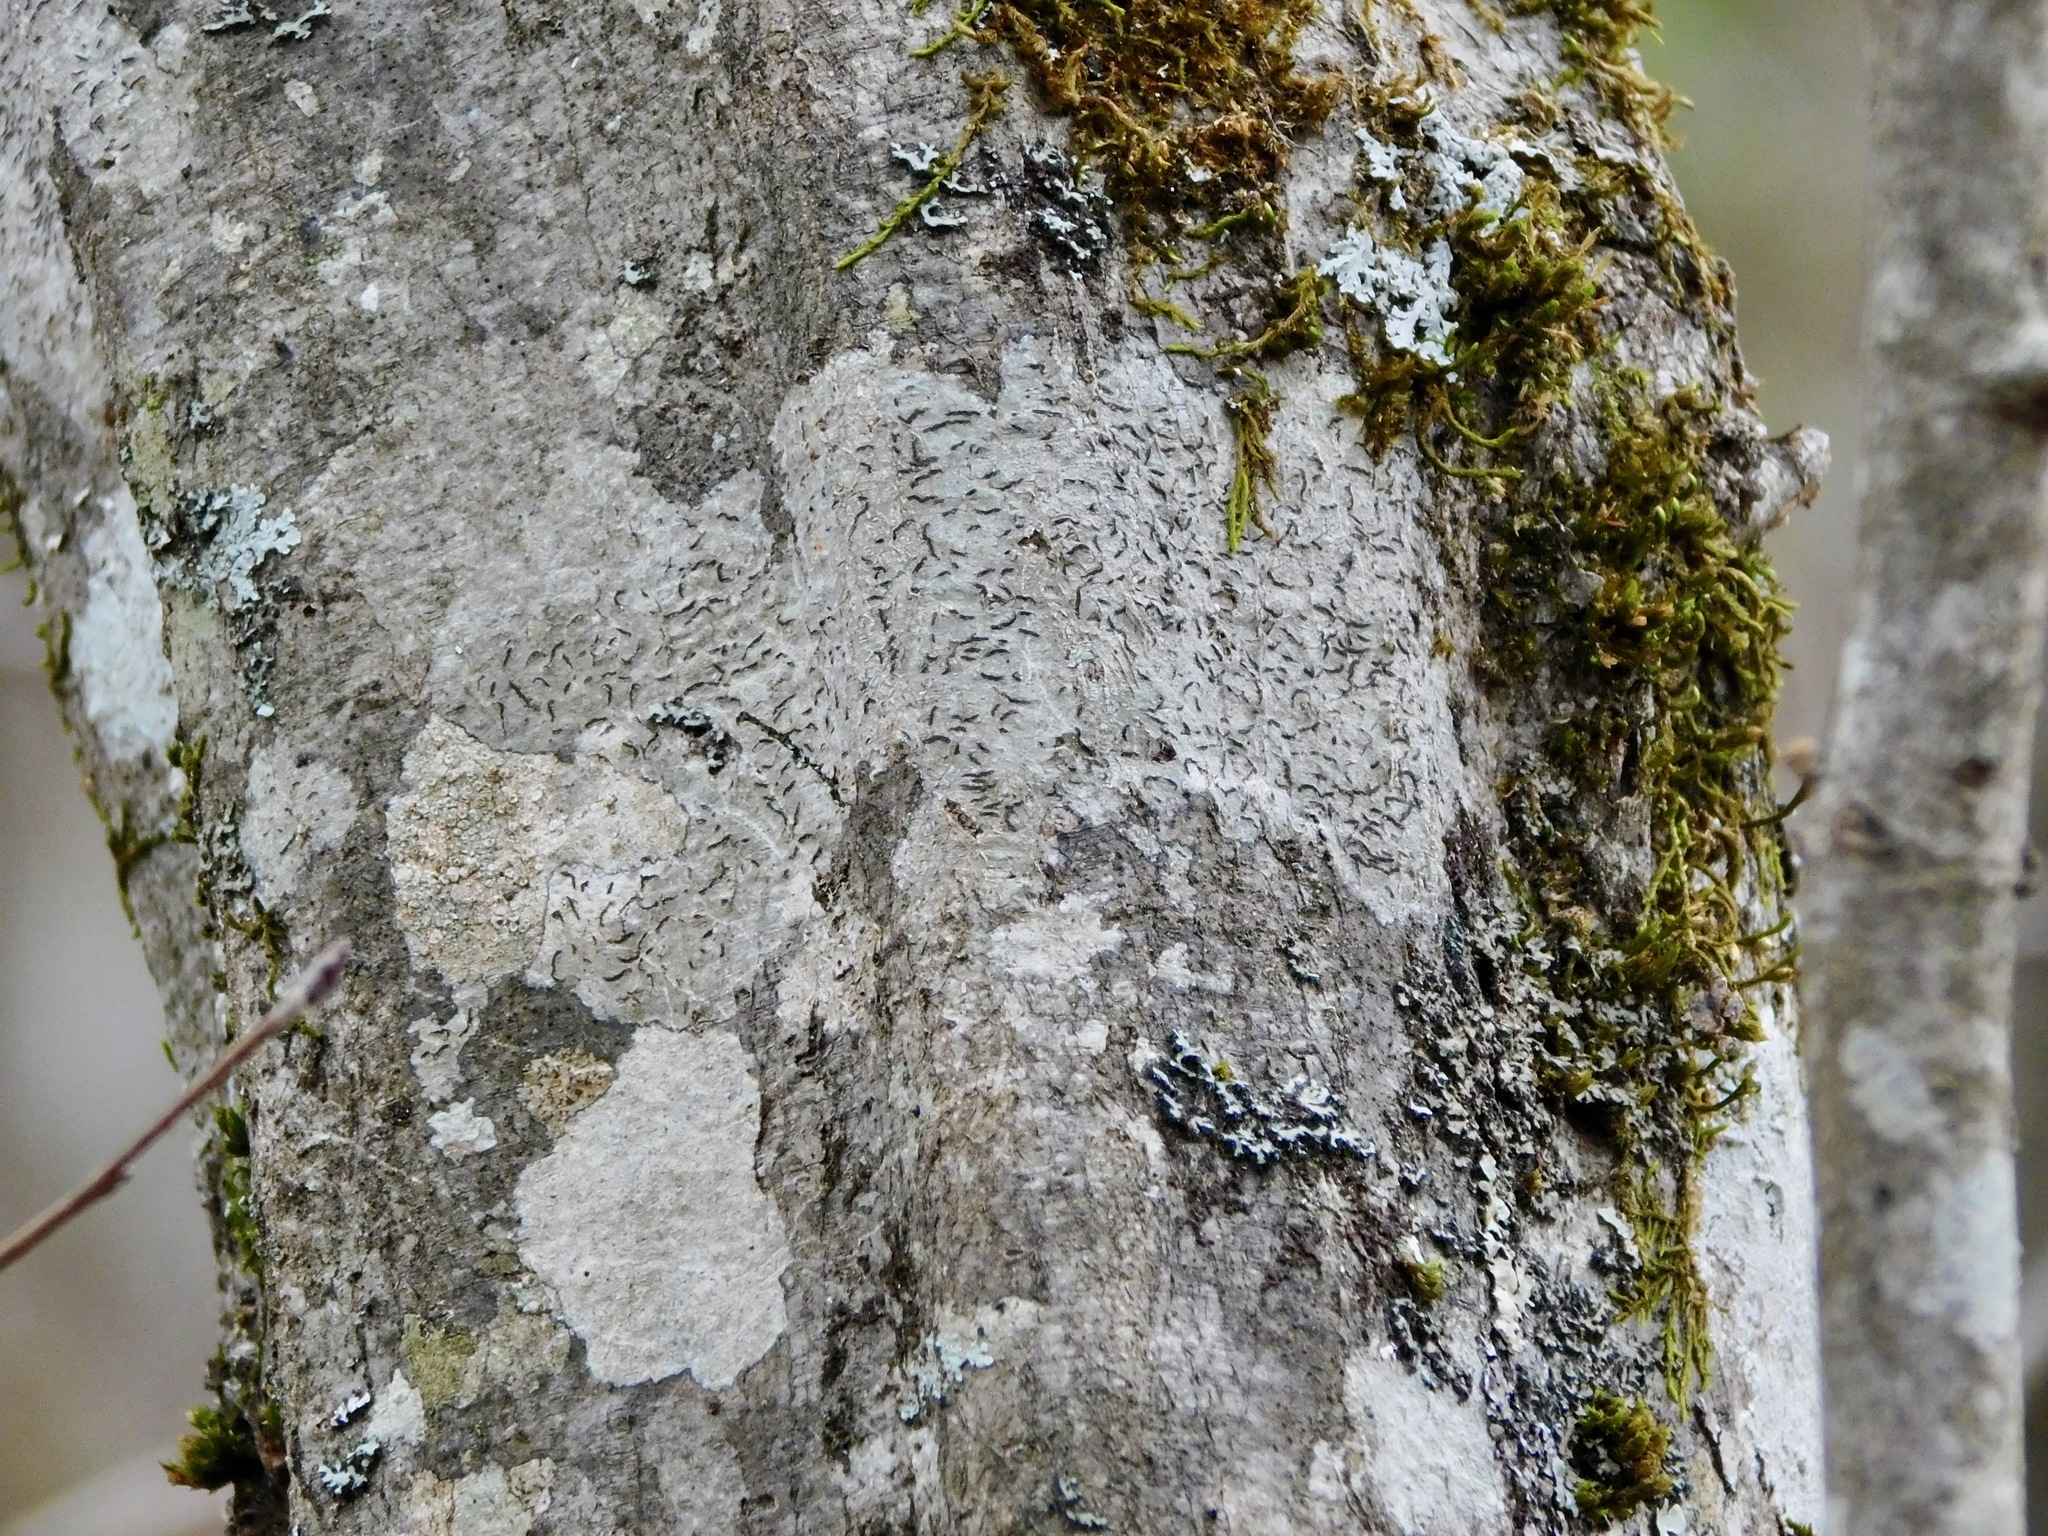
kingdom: Fungi
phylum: Ascomycota
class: Lecanoromycetes
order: Ostropales
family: Graphidaceae
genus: Graphis
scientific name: Graphis scripta
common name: Script lichen
